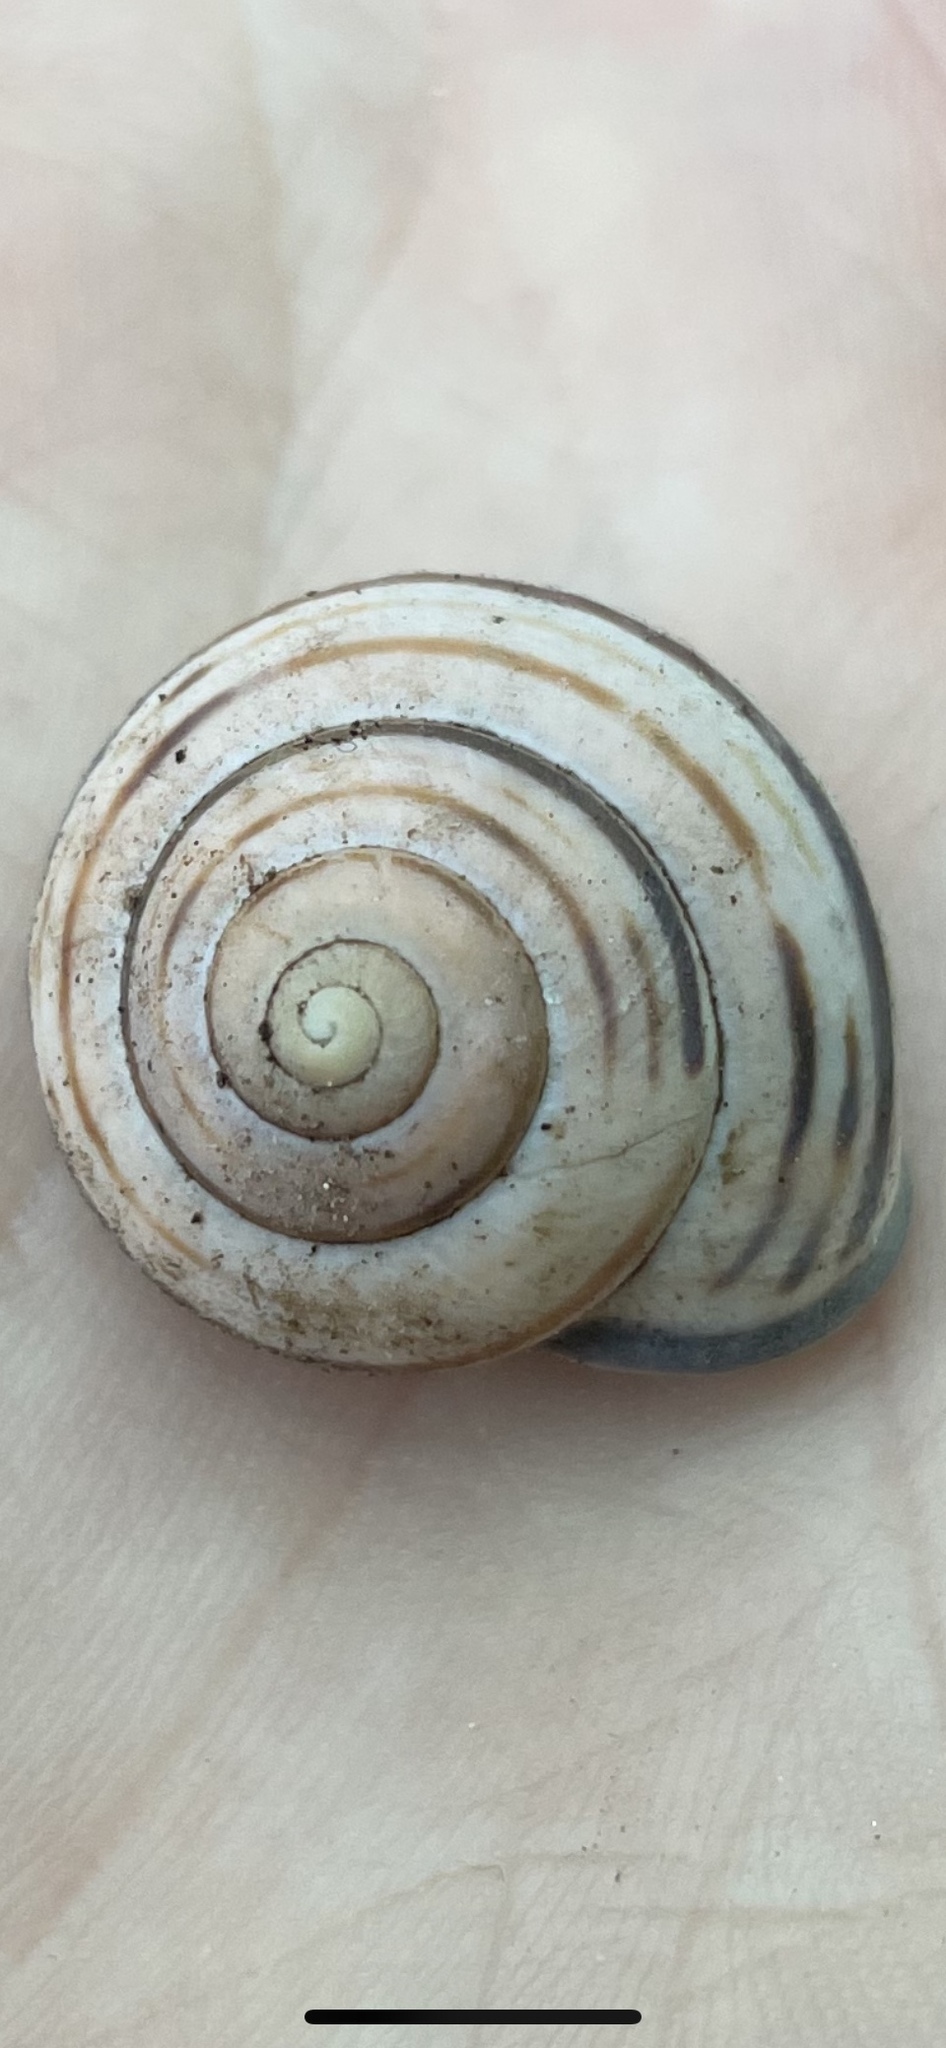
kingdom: Animalia
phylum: Mollusca
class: Gastropoda
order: Stylommatophora
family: Helicidae
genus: Cepaea
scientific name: Cepaea nemoralis
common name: Grovesnail
